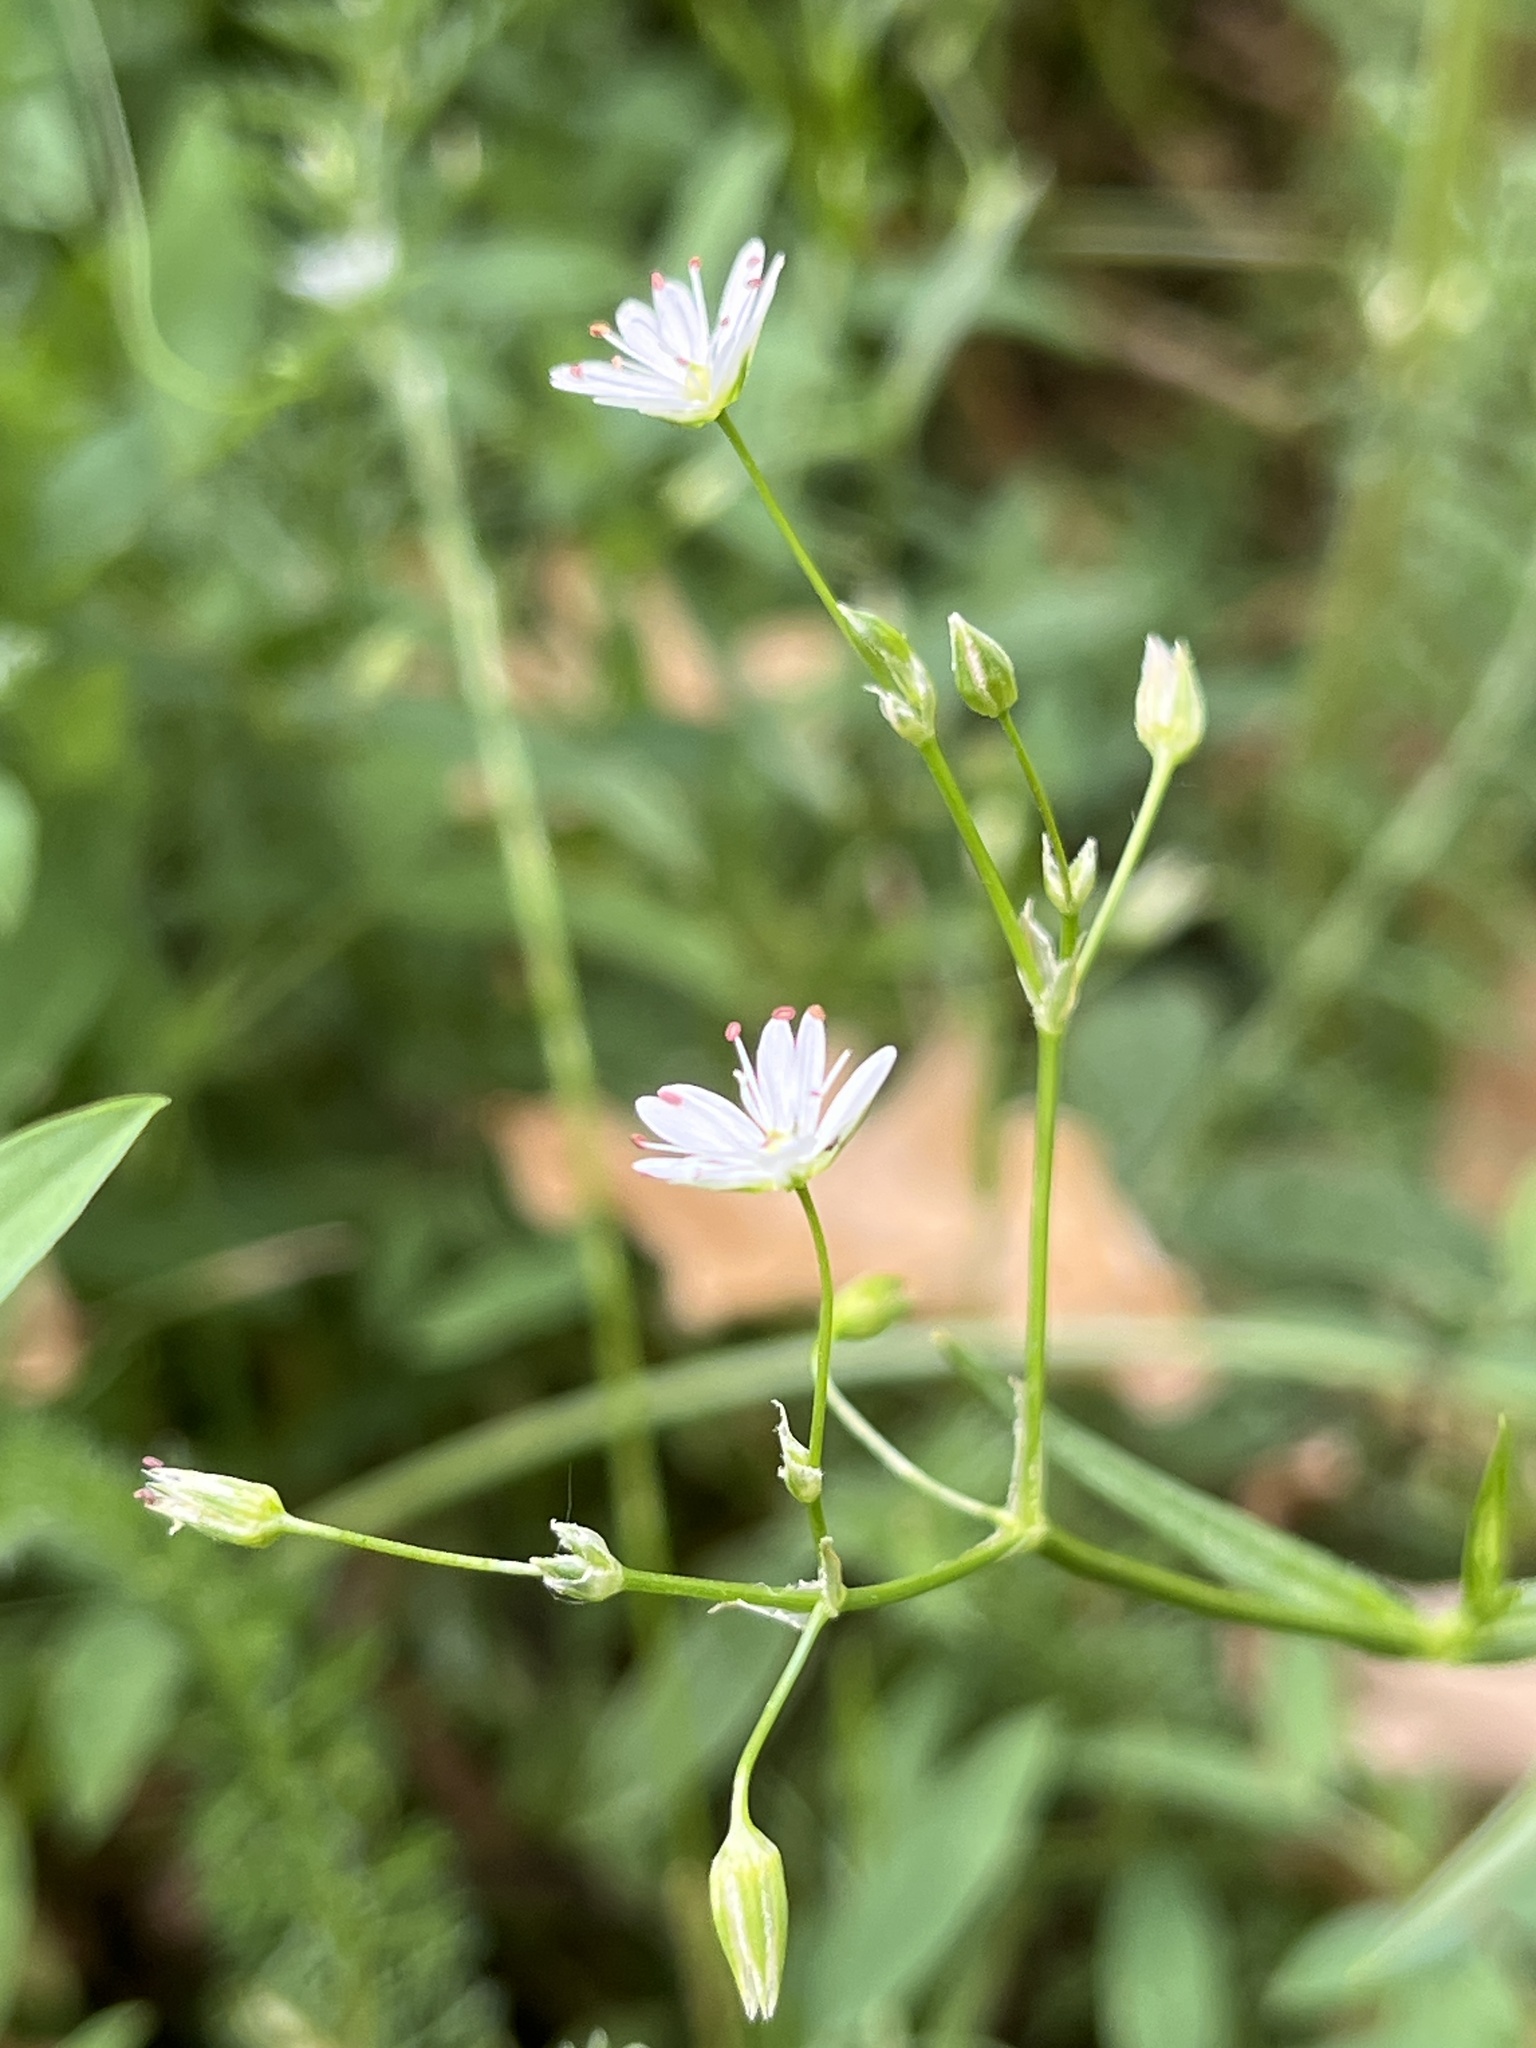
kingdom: Plantae
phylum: Tracheophyta
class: Magnoliopsida
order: Caryophyllales
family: Caryophyllaceae
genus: Stellaria
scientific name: Stellaria graminea
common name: Grass-like starwort
